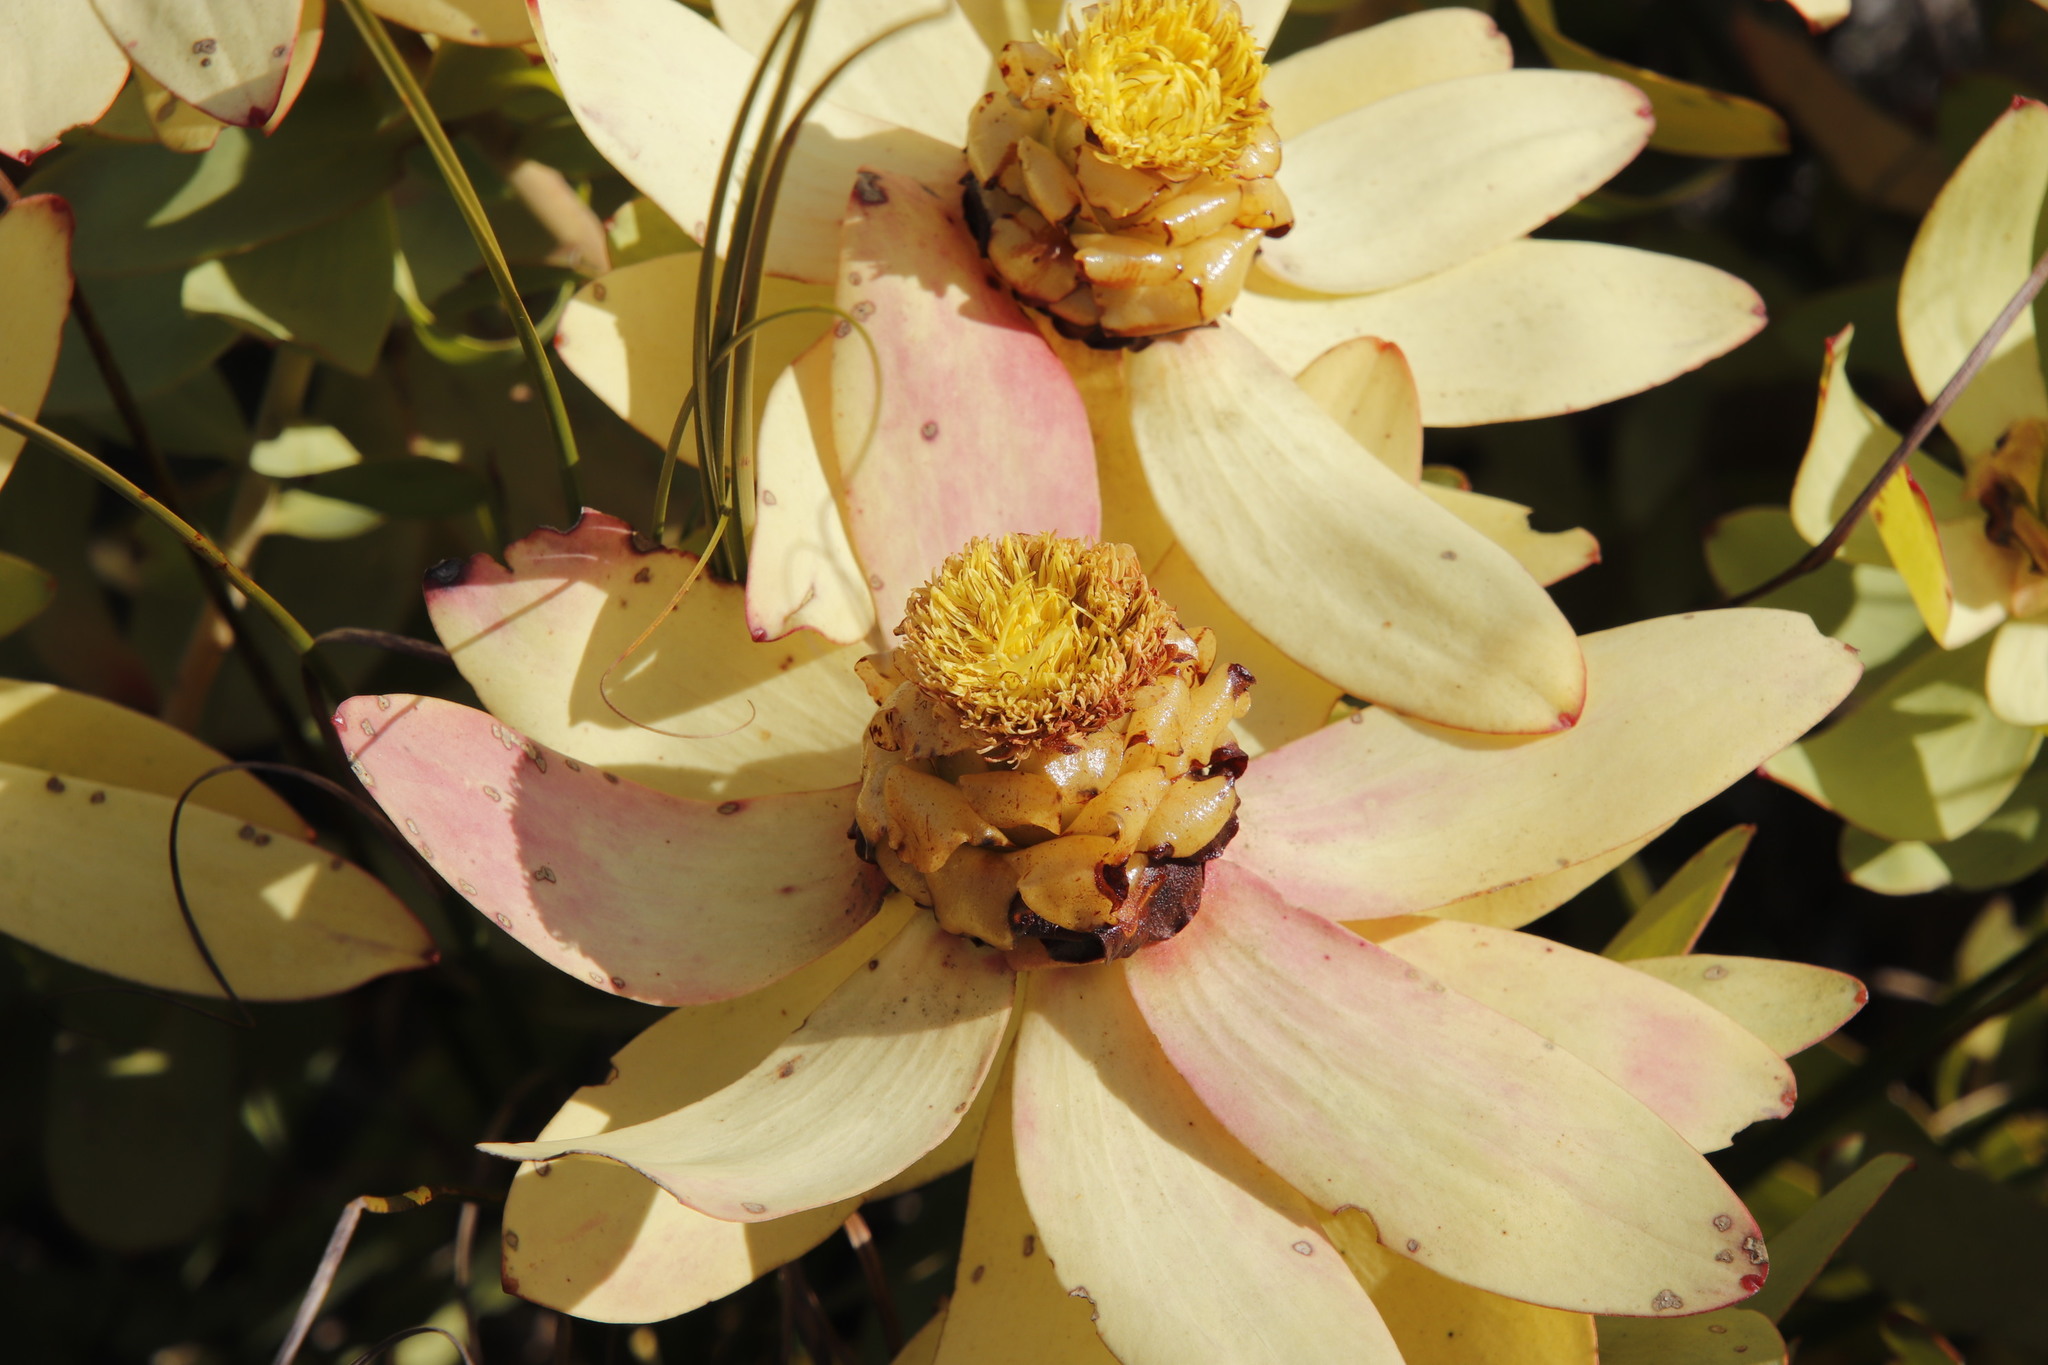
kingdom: Plantae
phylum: Tracheophyta
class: Magnoliopsida
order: Proteales
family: Proteaceae
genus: Leucadendron
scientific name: Leucadendron tinctum
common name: Spicy conebush
